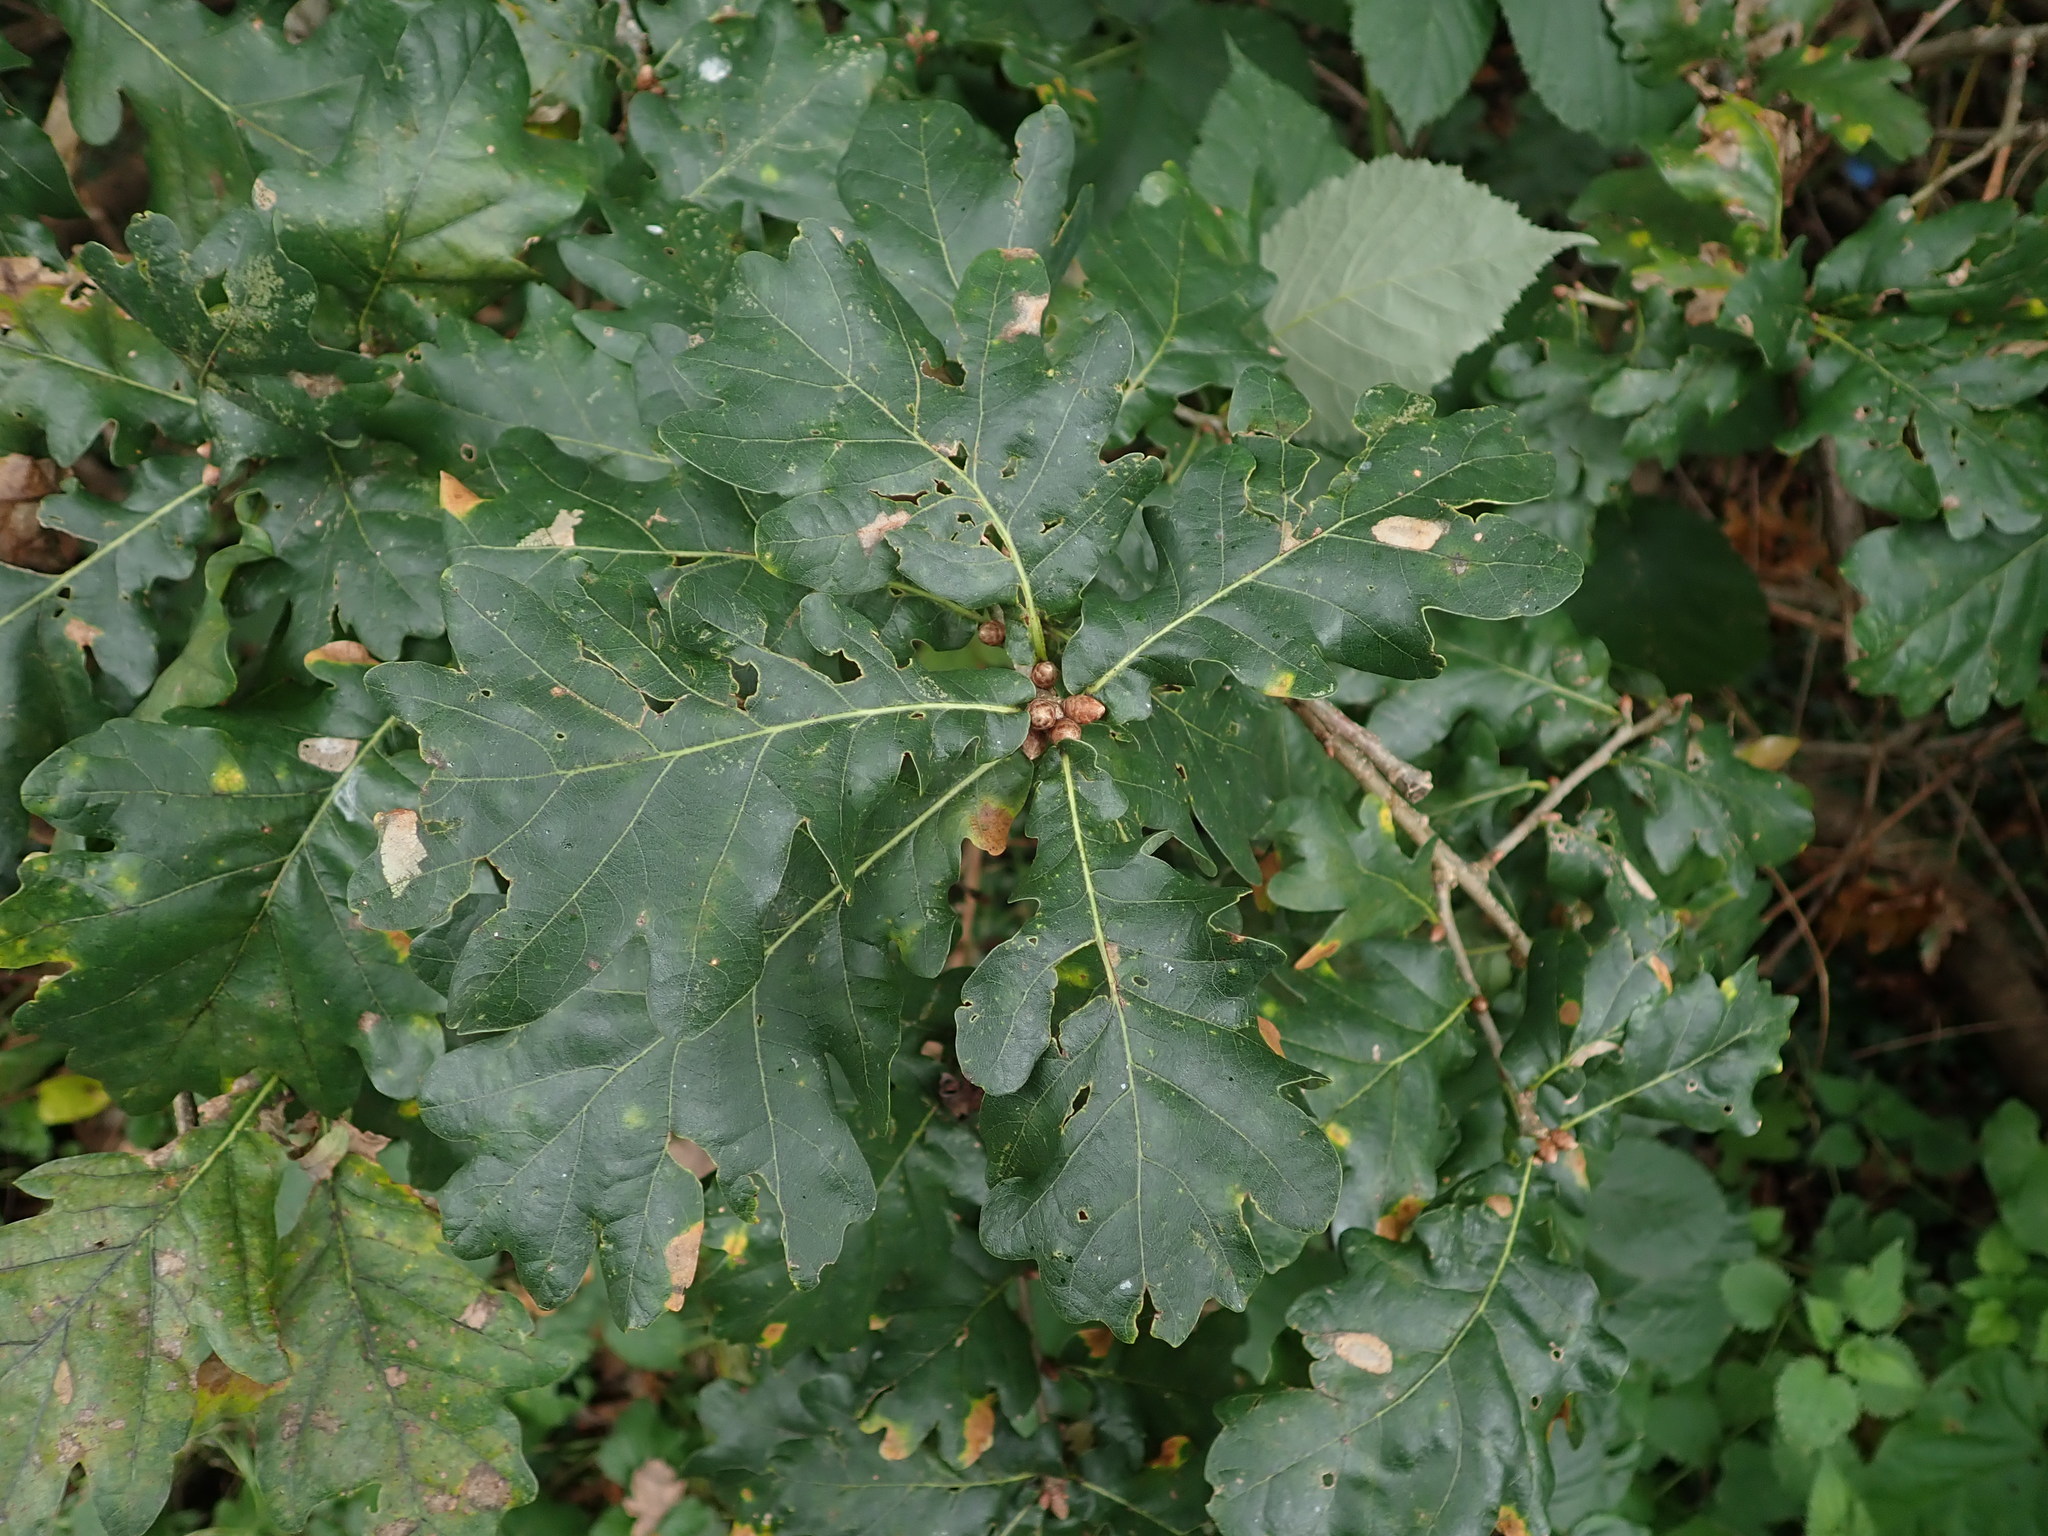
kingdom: Plantae
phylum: Tracheophyta
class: Magnoliopsida
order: Fagales
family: Fagaceae
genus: Quercus
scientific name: Quercus robur
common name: Pedunculate oak
